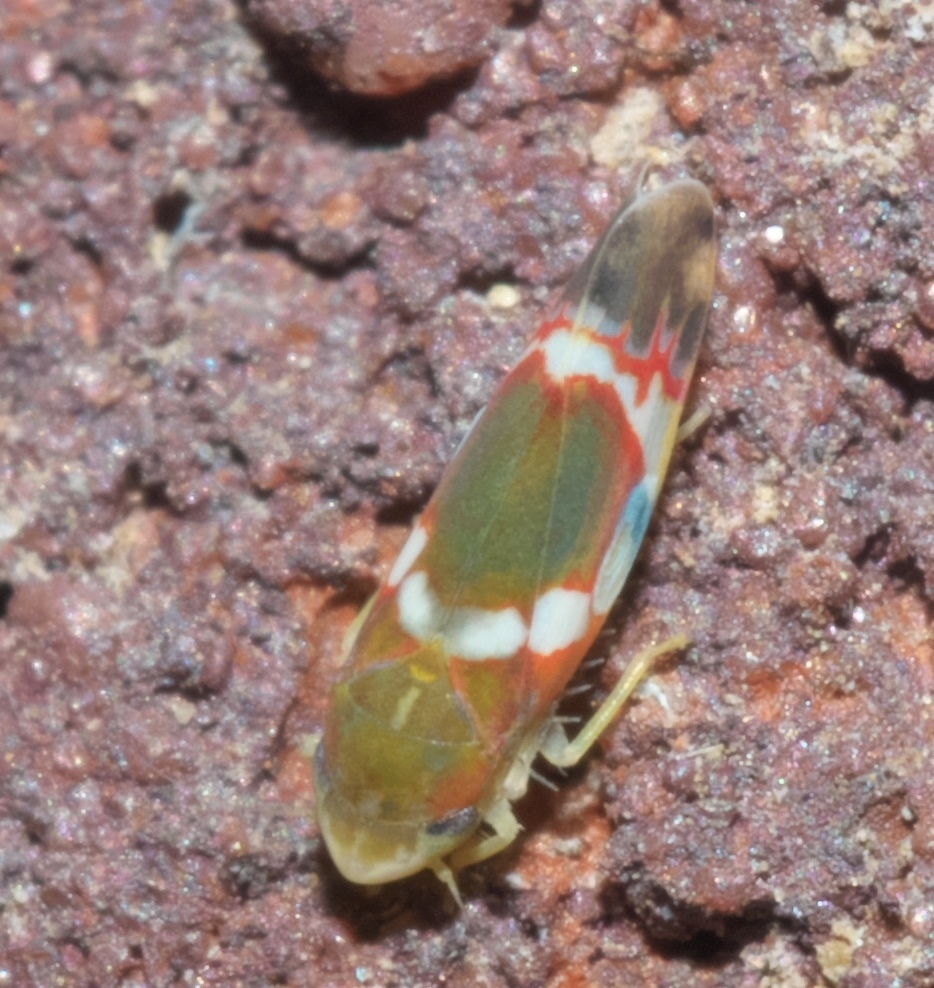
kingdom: Animalia
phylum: Arthropoda
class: Insecta
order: Hemiptera
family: Cicadellidae
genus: Erythroneura
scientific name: Erythroneura vitis
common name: Grapevine leafhopper
